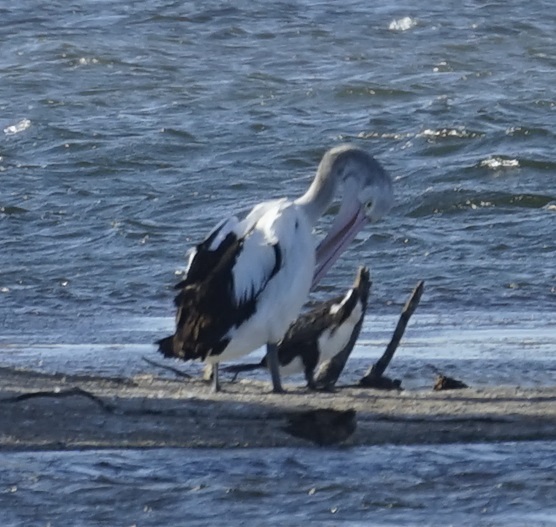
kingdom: Animalia
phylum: Chordata
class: Aves
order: Pelecaniformes
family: Pelecanidae
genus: Pelecanus
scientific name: Pelecanus conspicillatus
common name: Australian pelican
